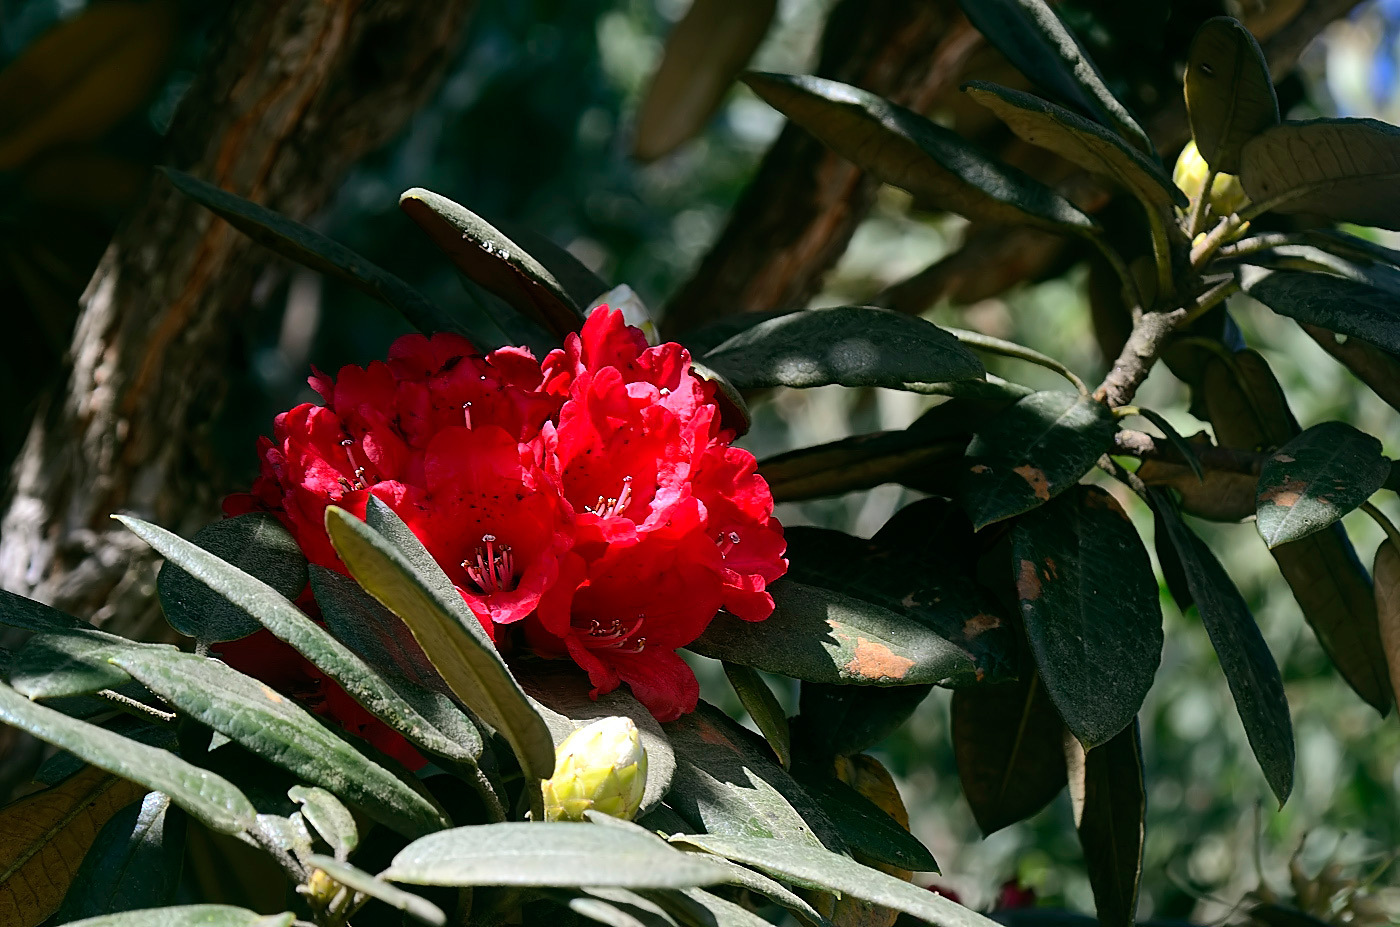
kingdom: Plantae
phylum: Tracheophyta
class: Magnoliopsida
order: Ericales
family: Ericaceae
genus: Rhododendron
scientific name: Rhododendron arboreum
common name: Tree rhododendron
